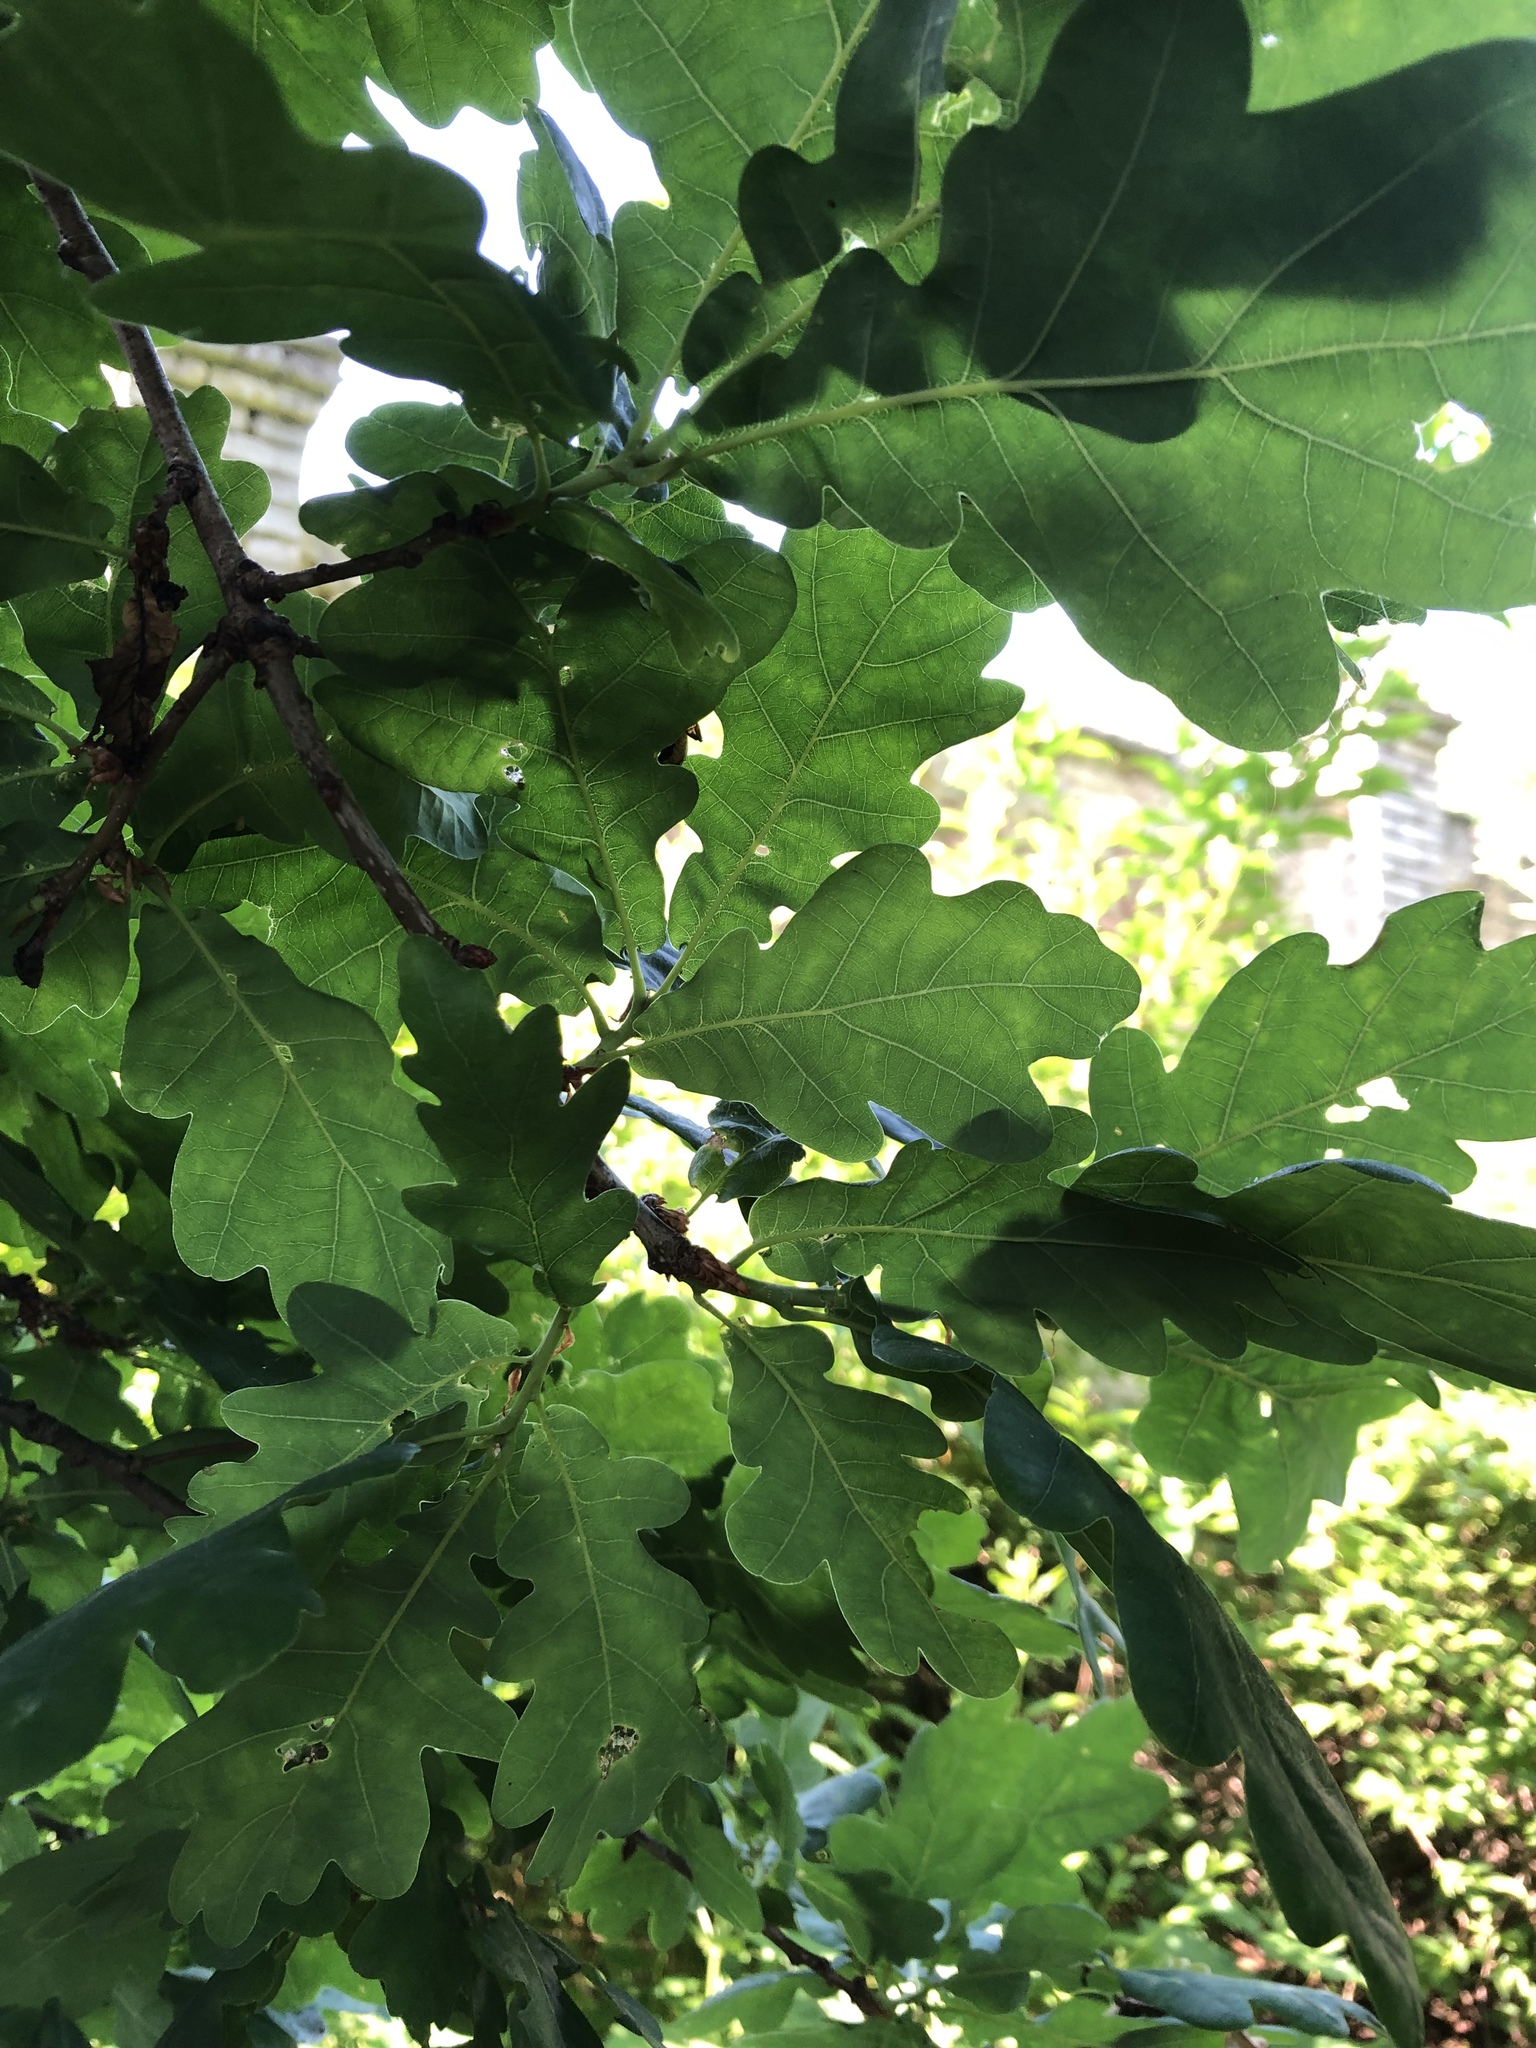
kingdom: Plantae
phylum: Tracheophyta
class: Magnoliopsida
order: Fagales
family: Fagaceae
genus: Quercus
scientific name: Quercus robur
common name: Pedunculate oak
